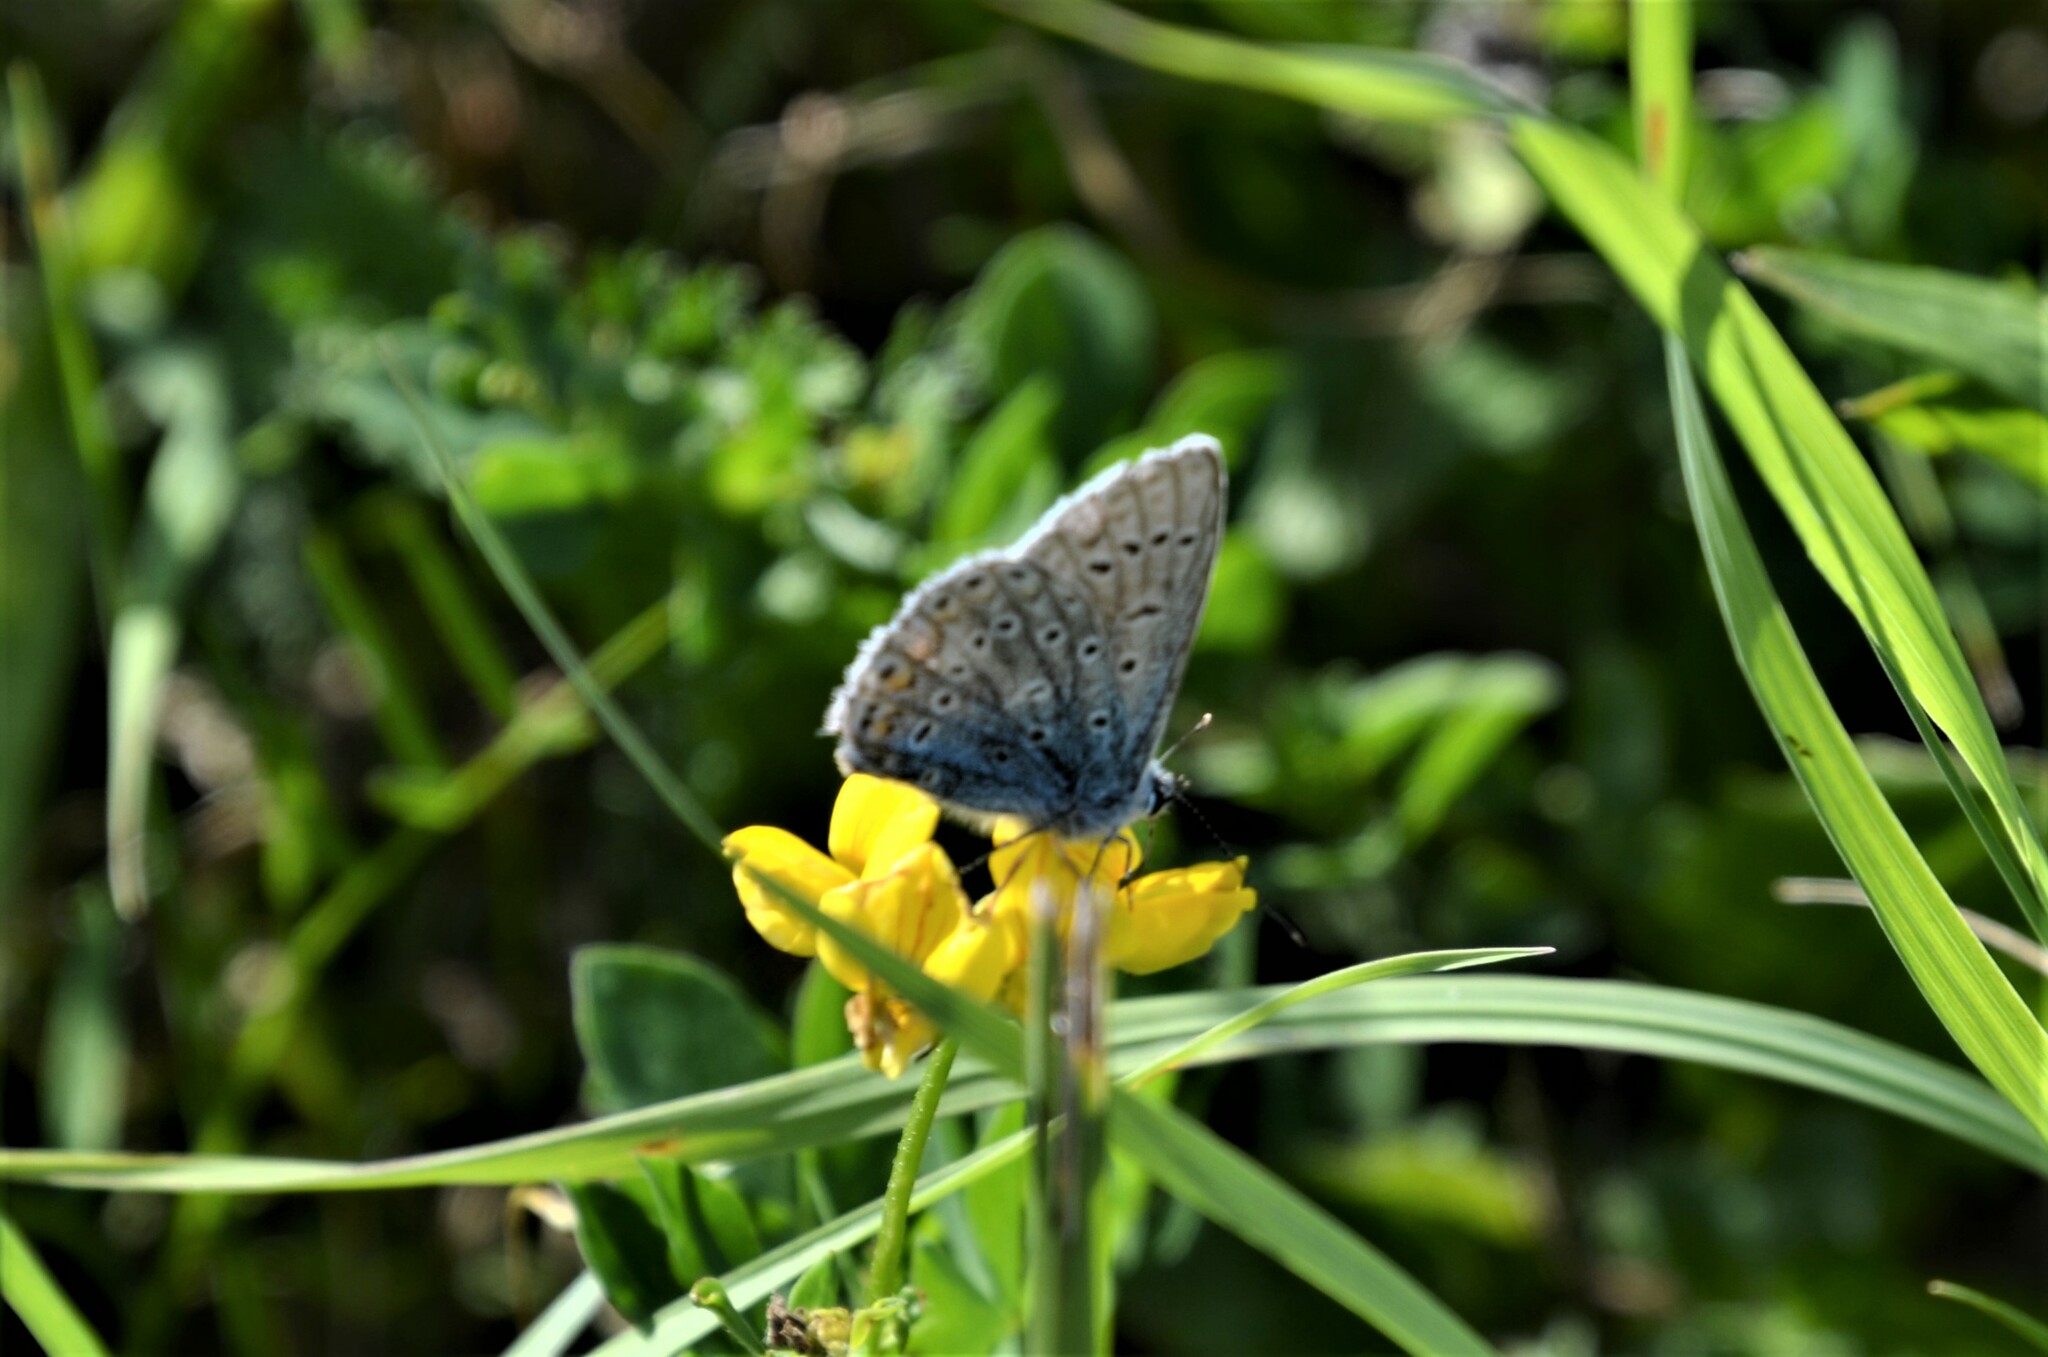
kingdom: Animalia
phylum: Arthropoda
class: Insecta
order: Lepidoptera
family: Lycaenidae
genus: Polyommatus
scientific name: Polyommatus icarus
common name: Common blue
